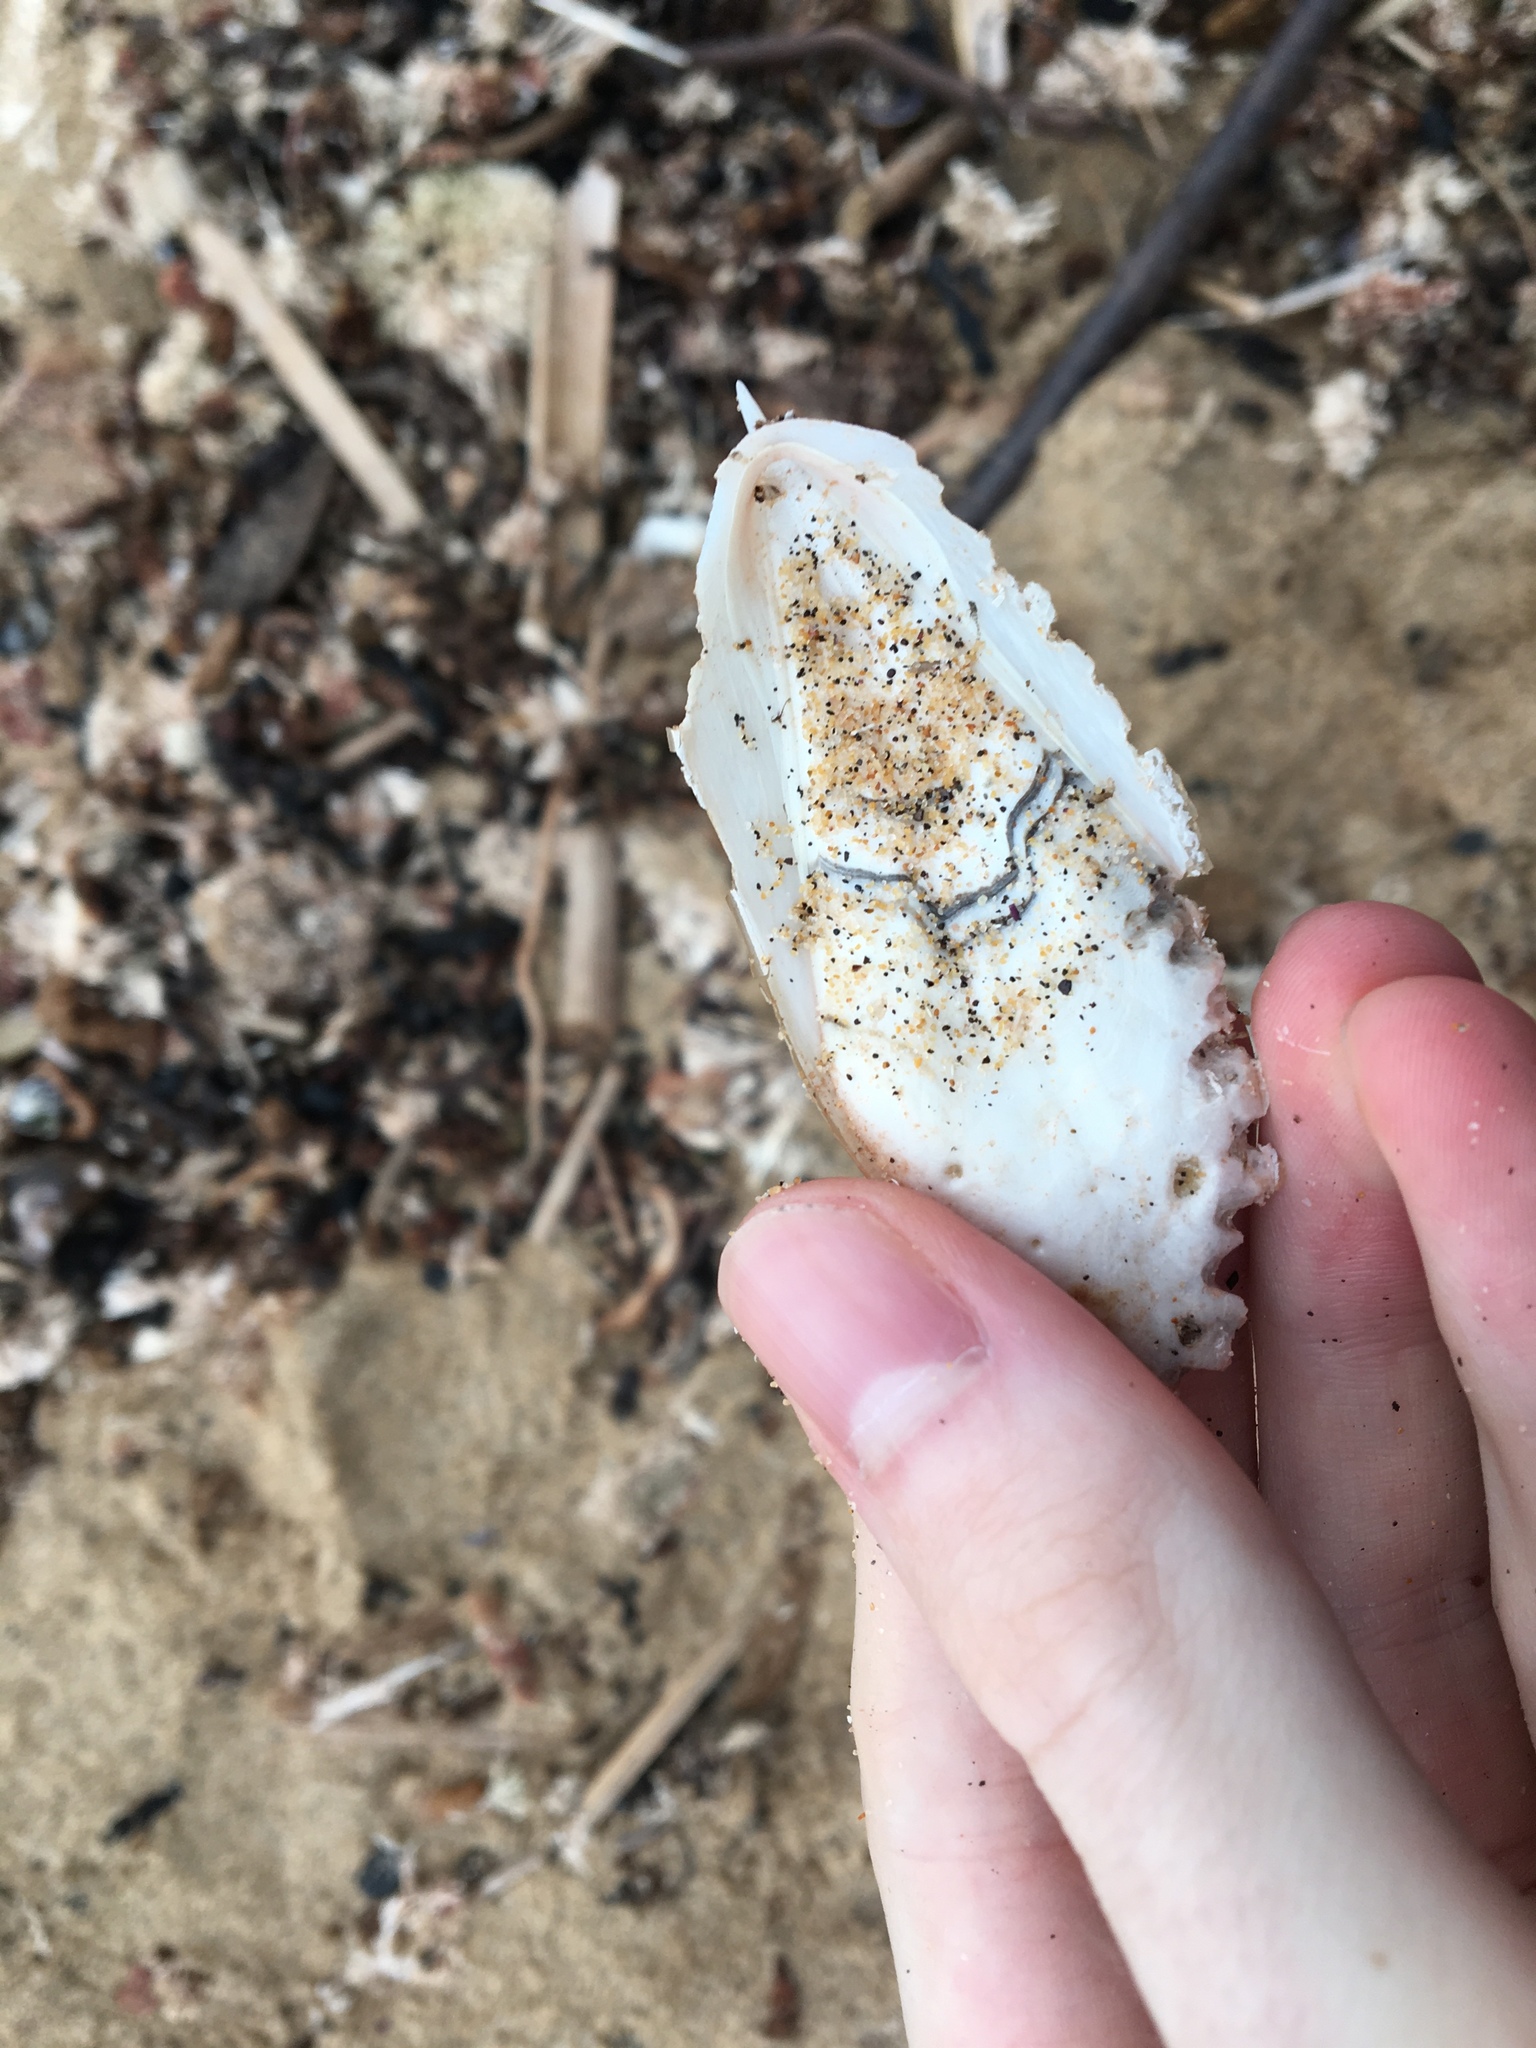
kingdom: Animalia
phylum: Mollusca
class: Cephalopoda
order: Sepiida
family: Sepiidae
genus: Sepia
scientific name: Sepia grahami
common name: Ken's cuttlefish
